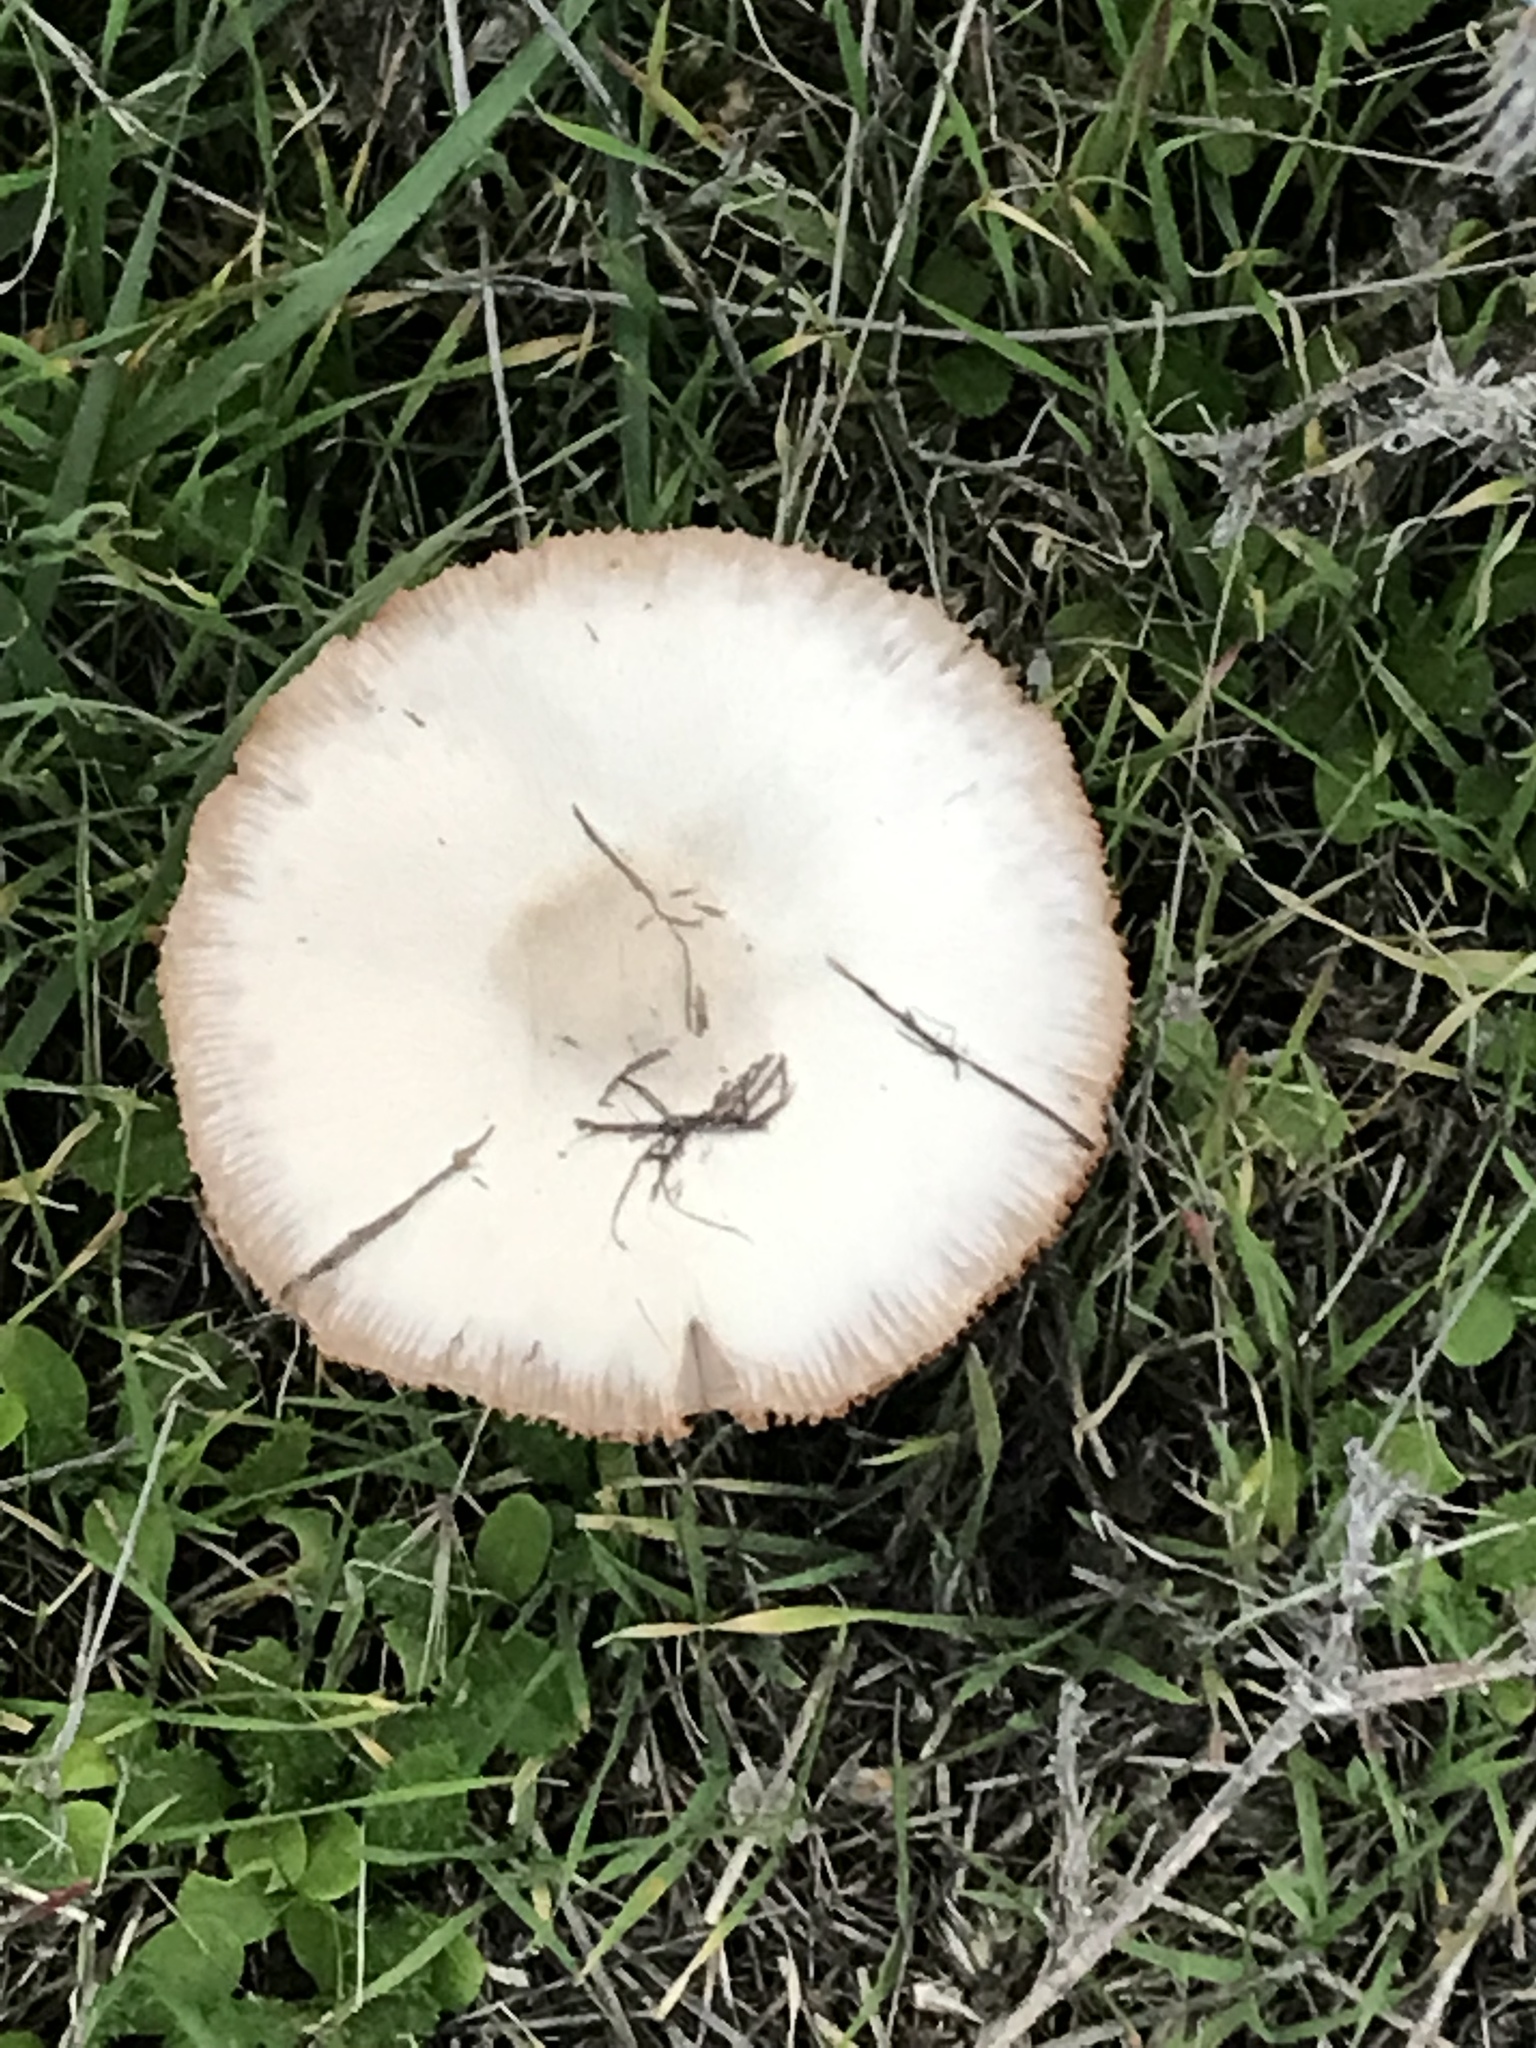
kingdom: Fungi
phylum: Basidiomycota
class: Agaricomycetes
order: Agaricales
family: Pluteaceae
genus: Volvopluteus
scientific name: Volvopluteus gloiocephalus
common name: Stubble rosegill
